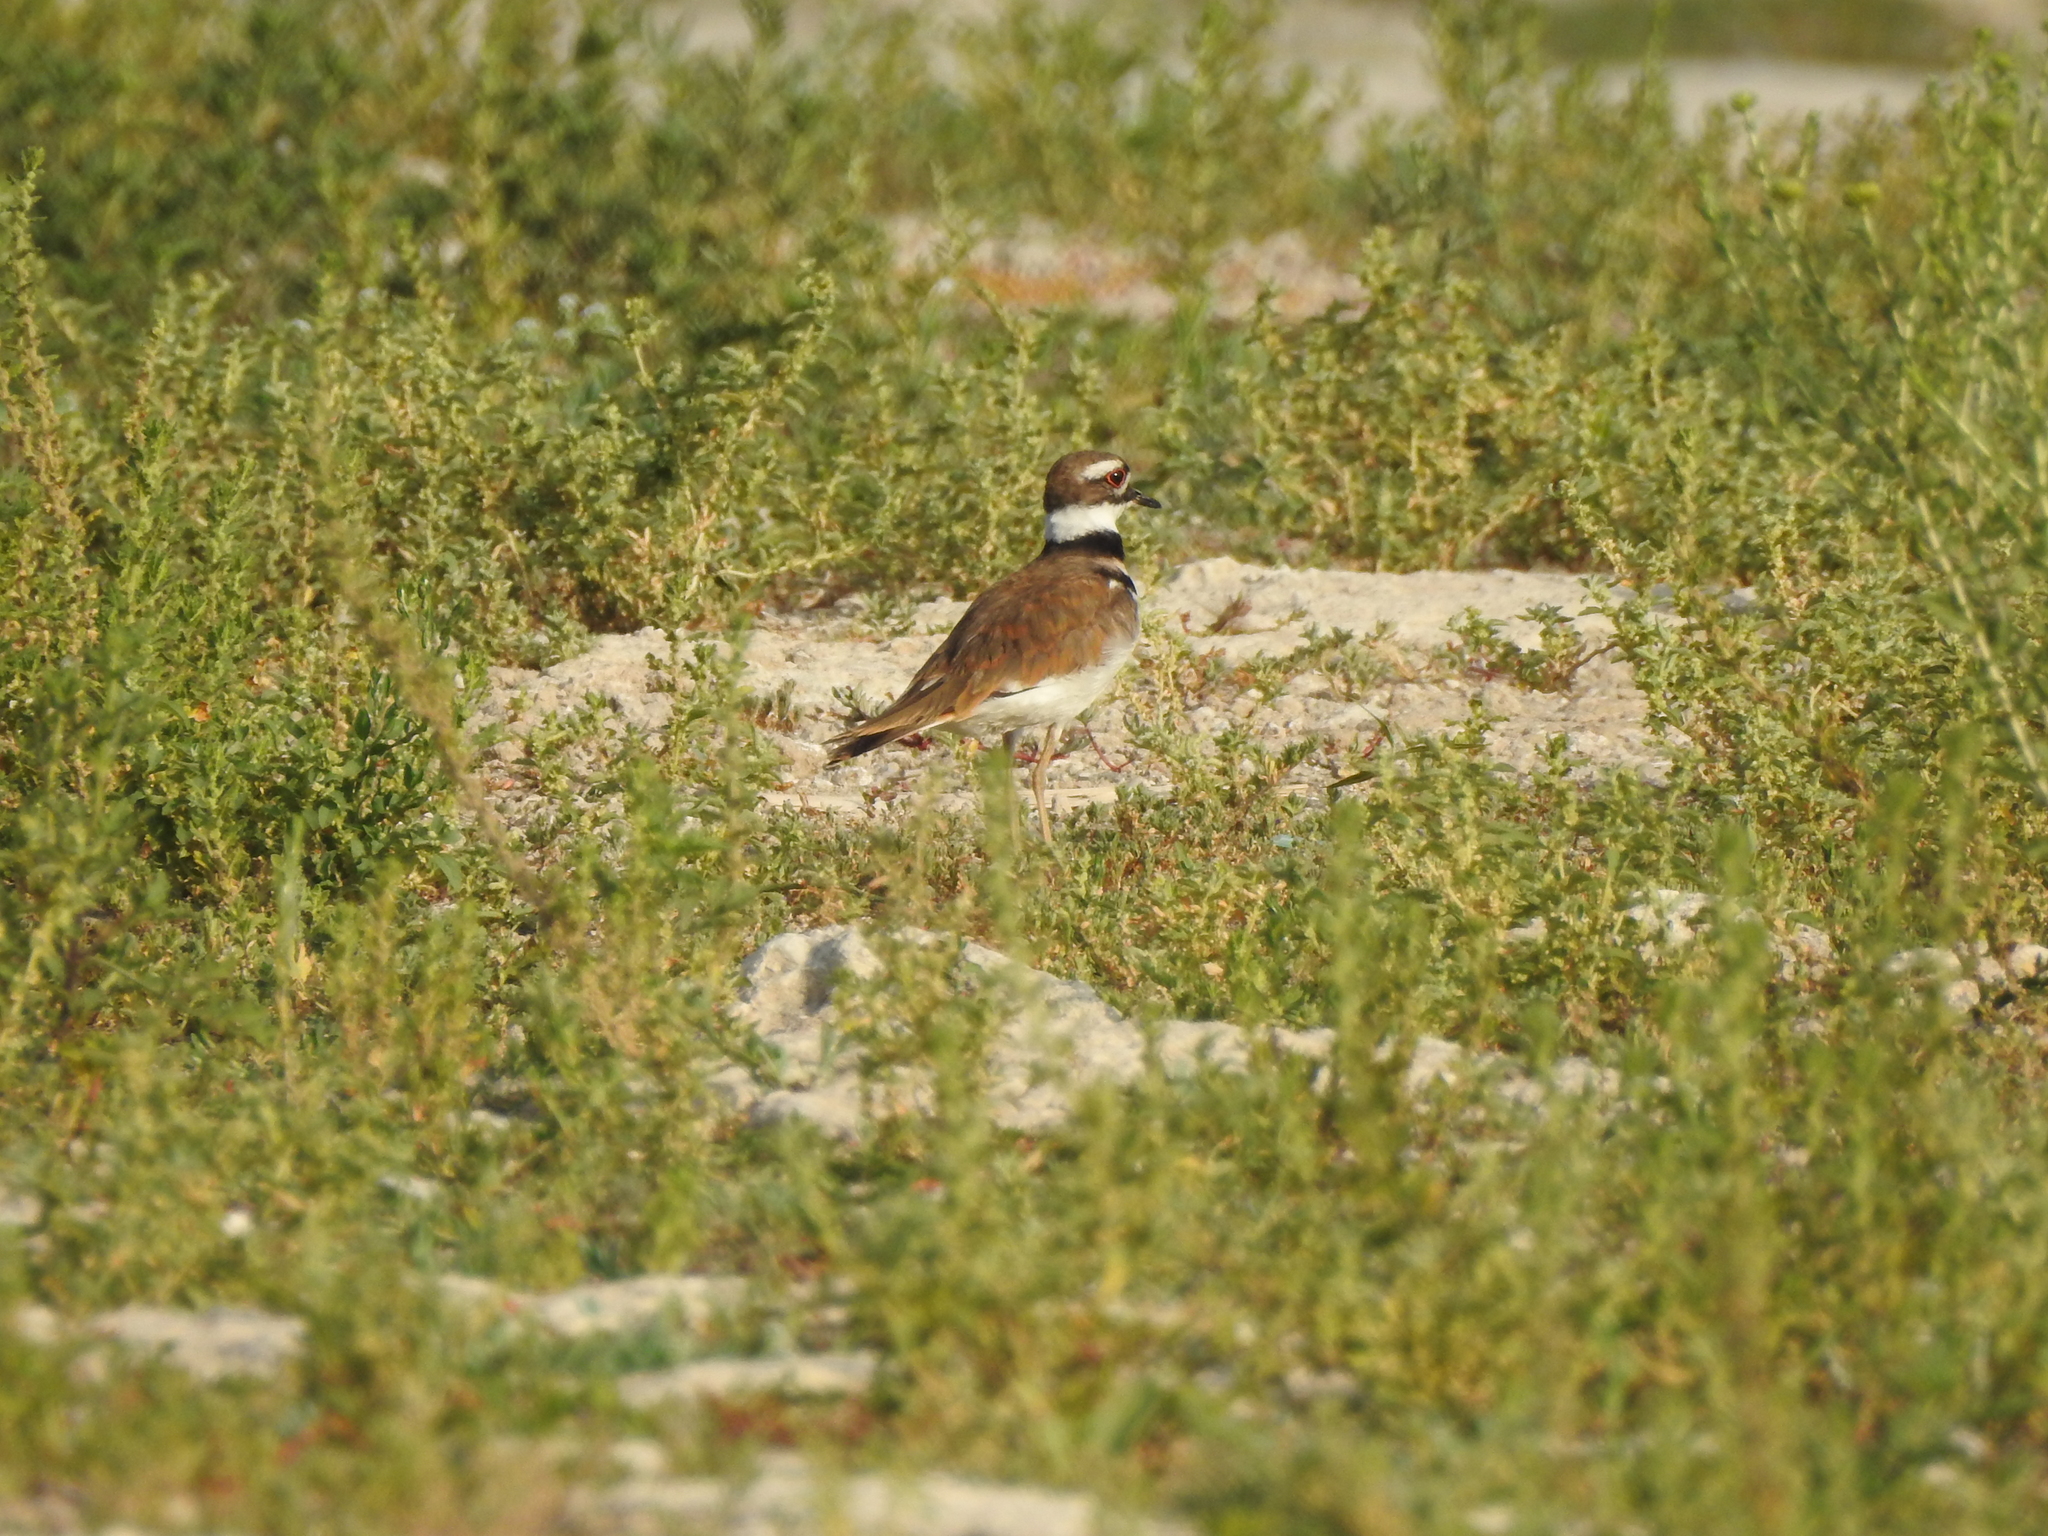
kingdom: Animalia
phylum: Chordata
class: Aves
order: Charadriiformes
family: Charadriidae
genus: Charadrius
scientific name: Charadrius vociferus
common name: Killdeer
